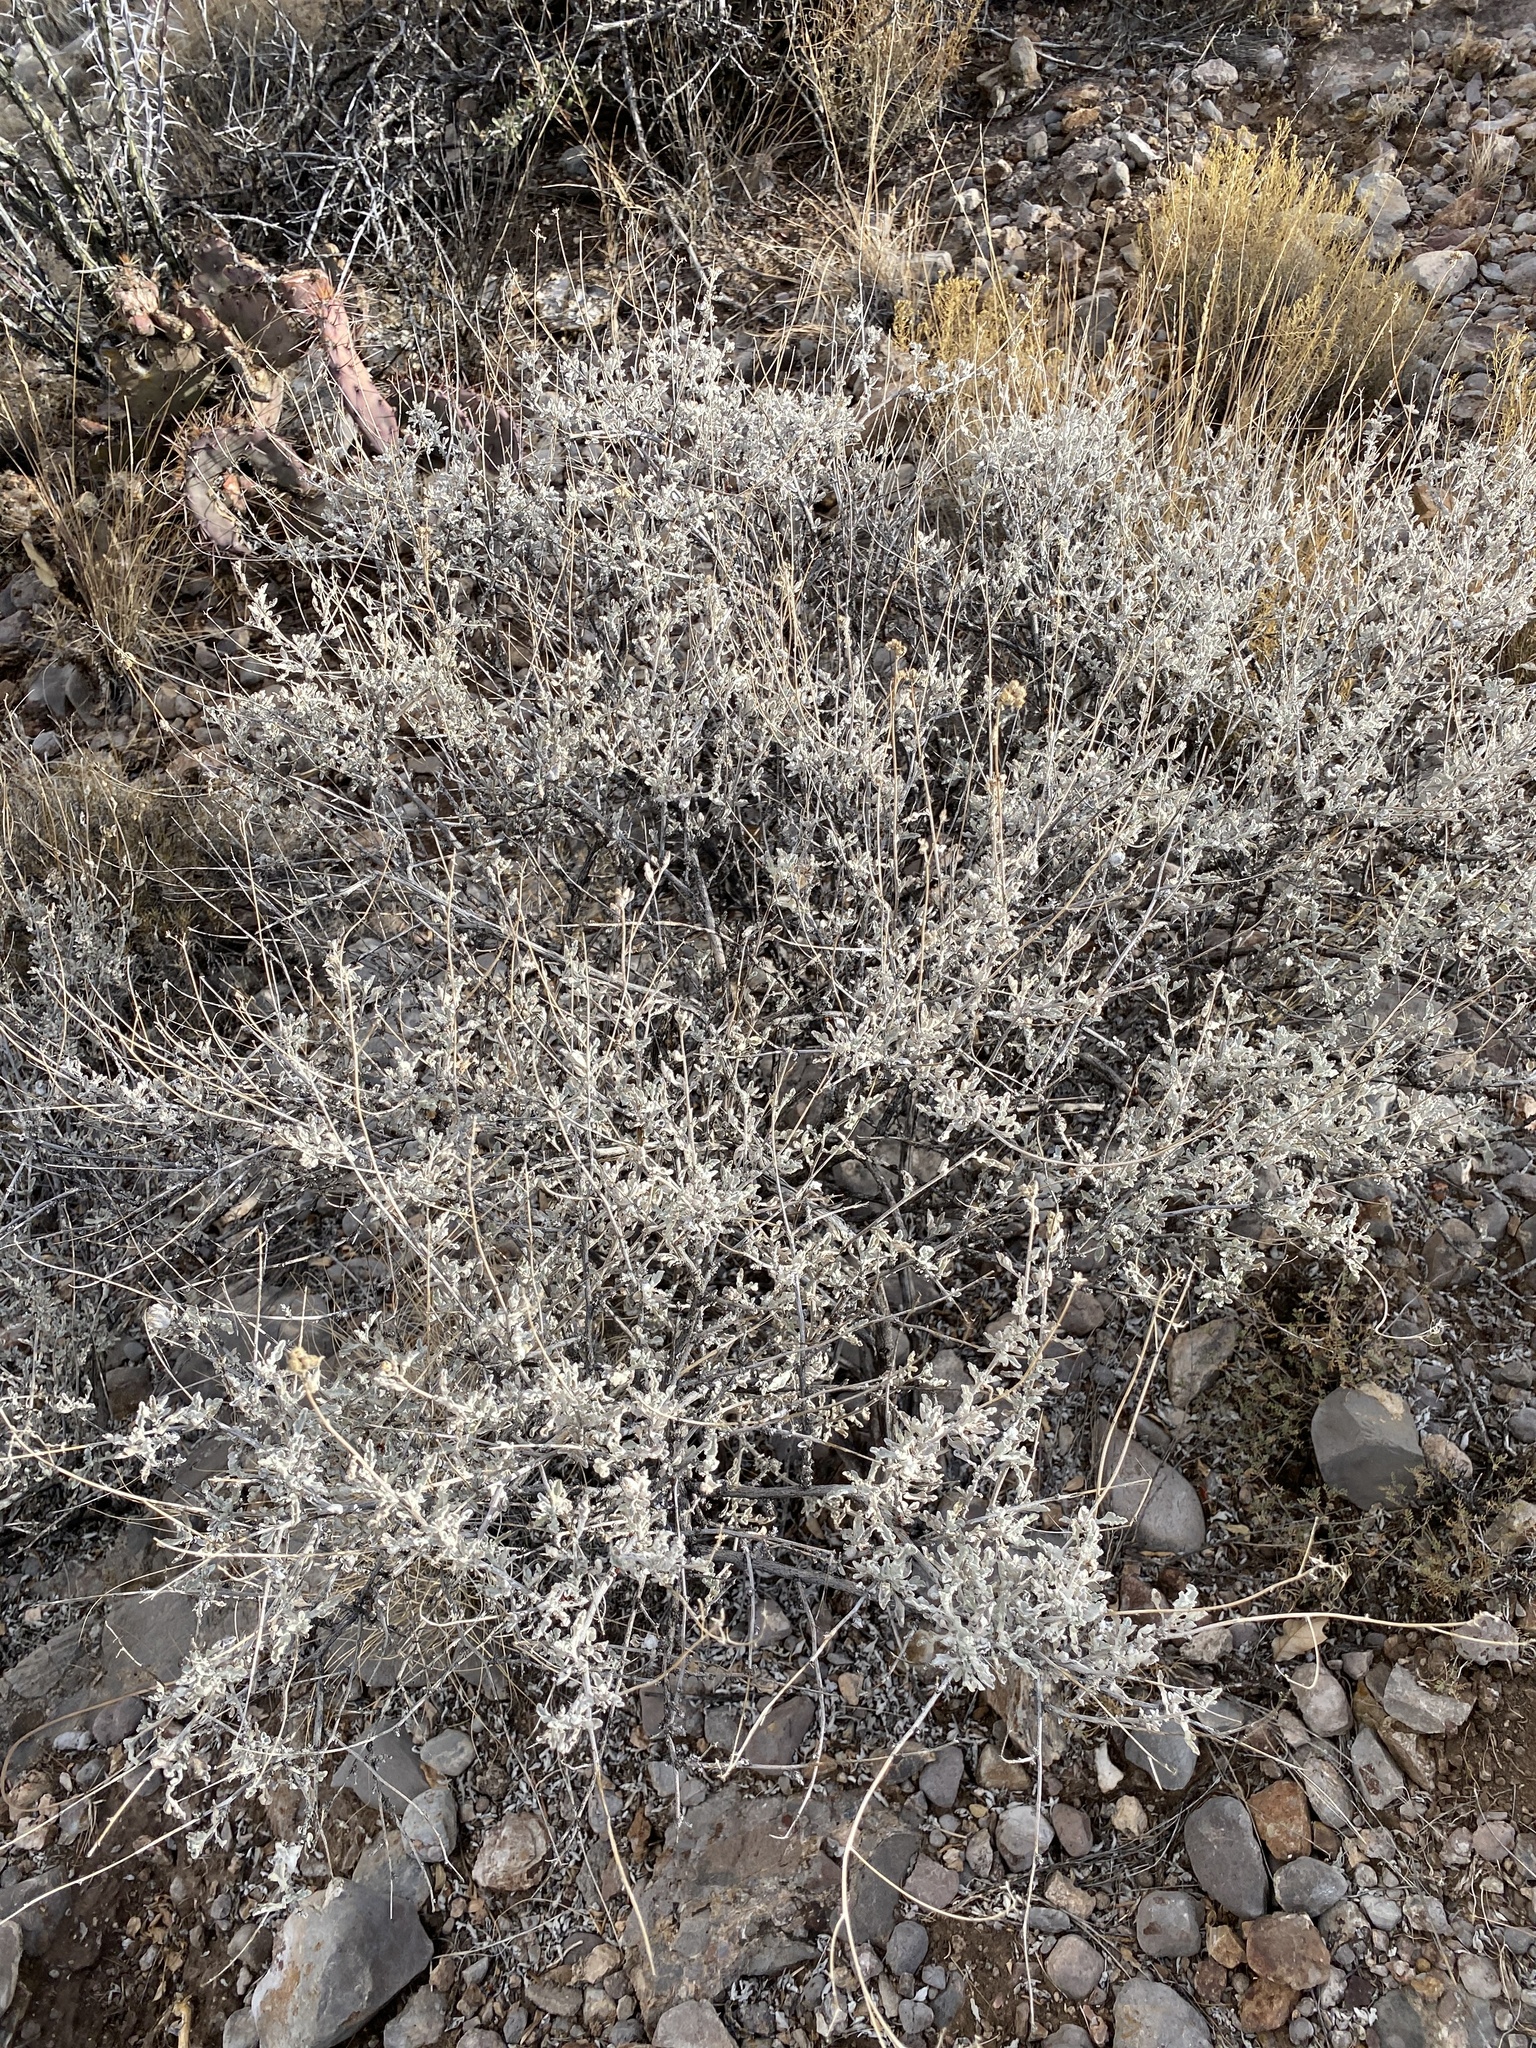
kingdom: Plantae
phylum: Tracheophyta
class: Magnoliopsida
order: Asterales
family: Asteraceae
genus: Parthenium
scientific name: Parthenium incanum
